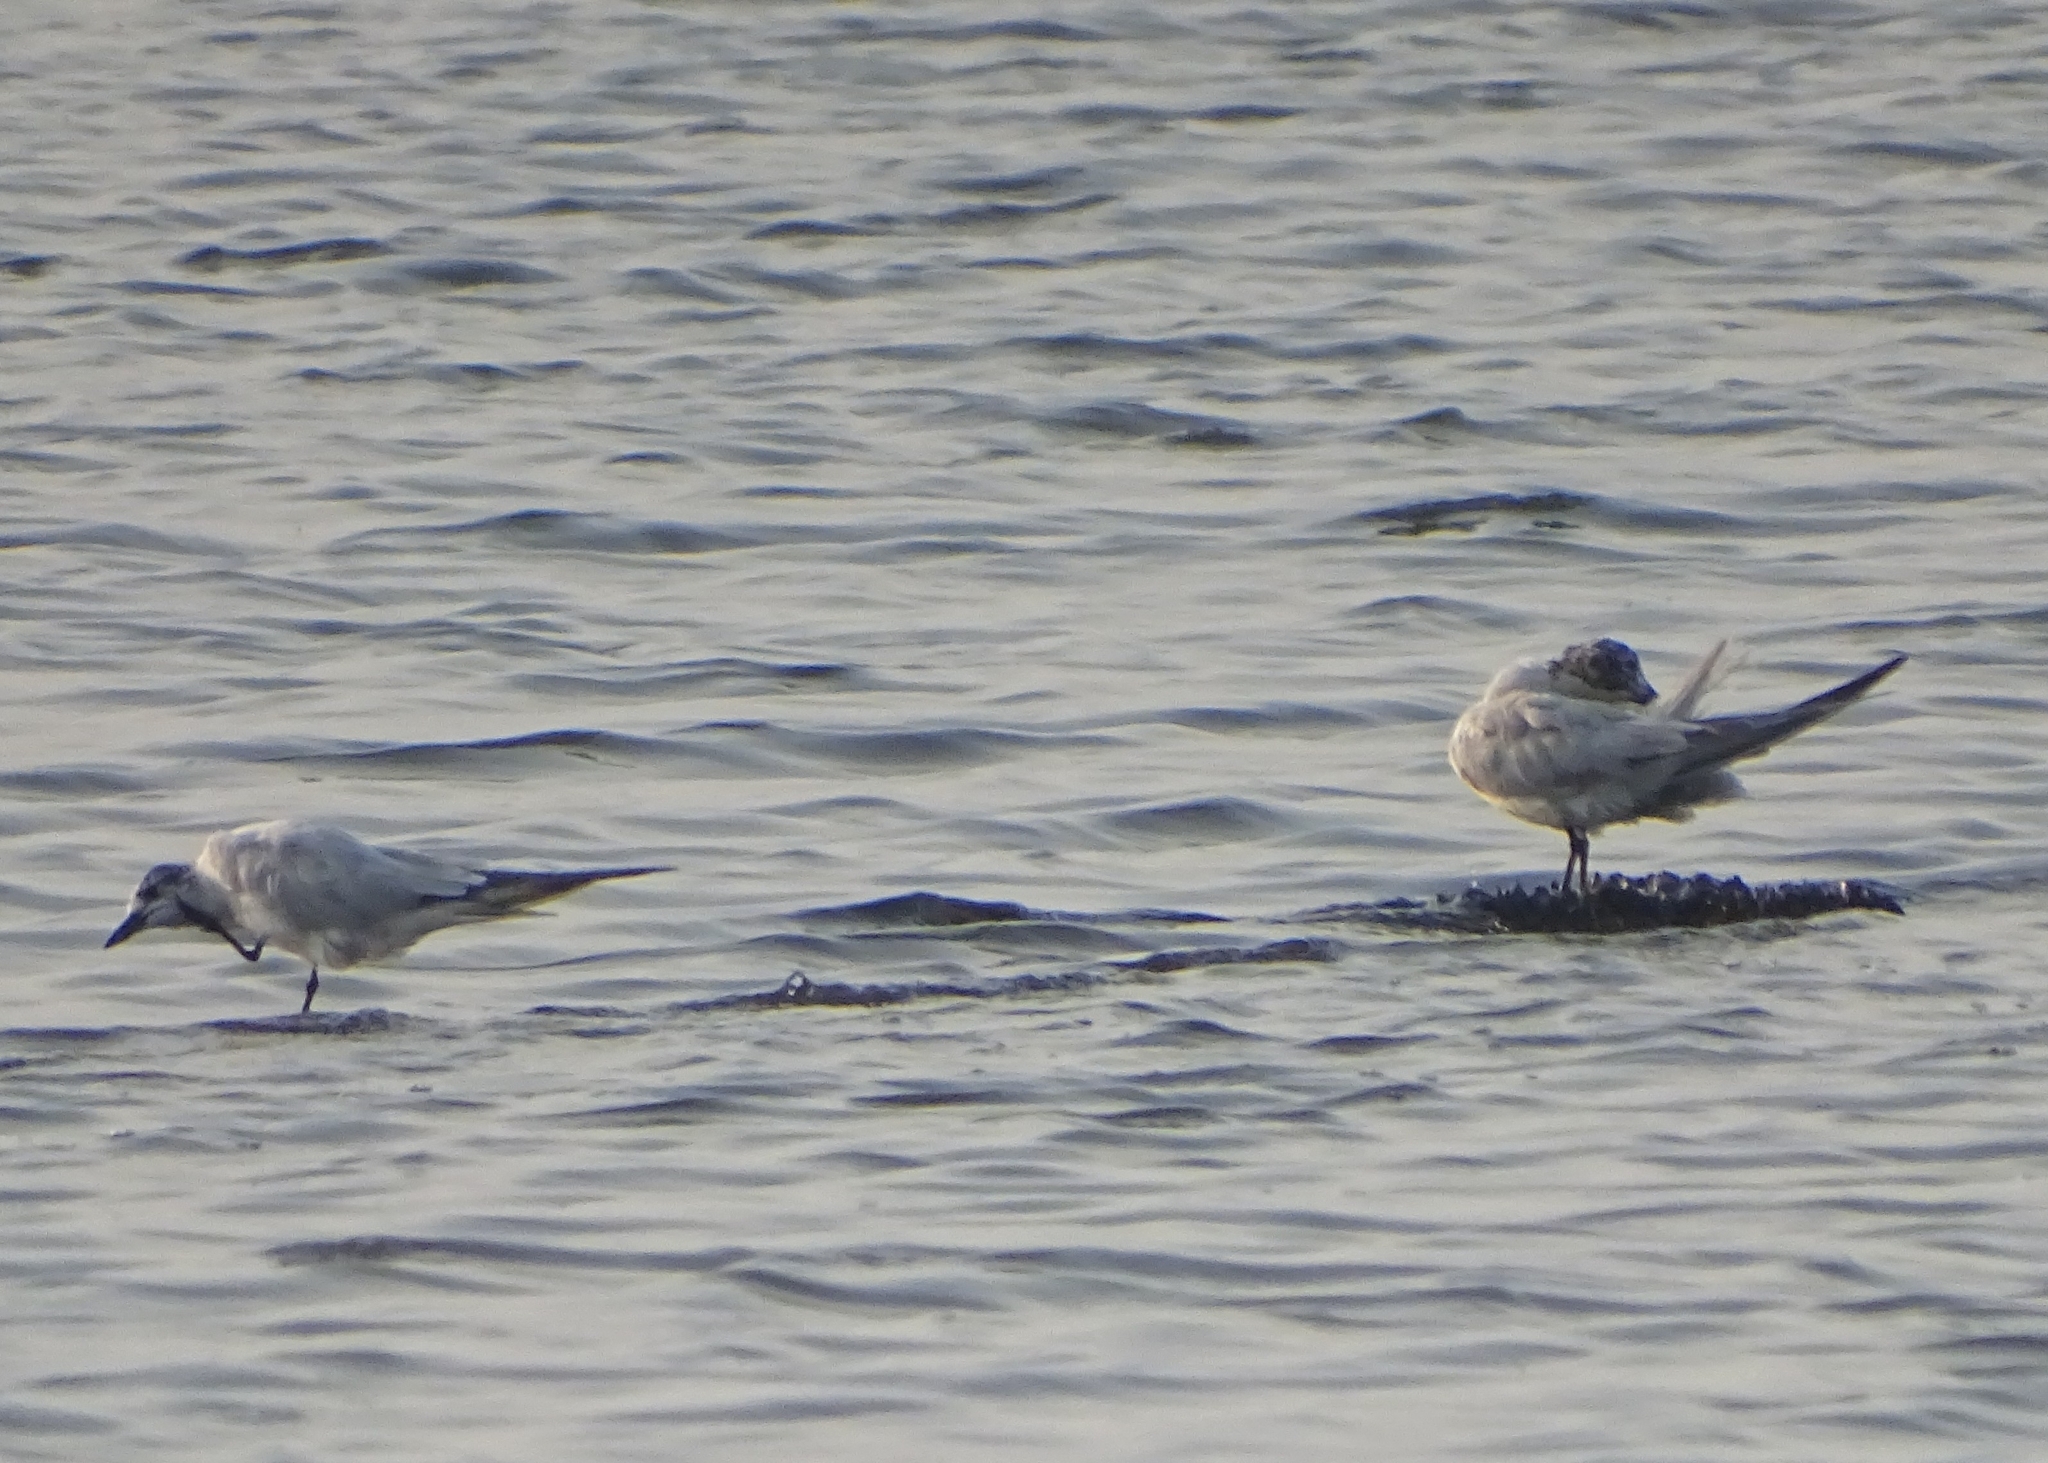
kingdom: Animalia
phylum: Chordata
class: Aves
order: Charadriiformes
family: Laridae
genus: Gelochelidon
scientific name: Gelochelidon nilotica
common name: Gull-billed tern
